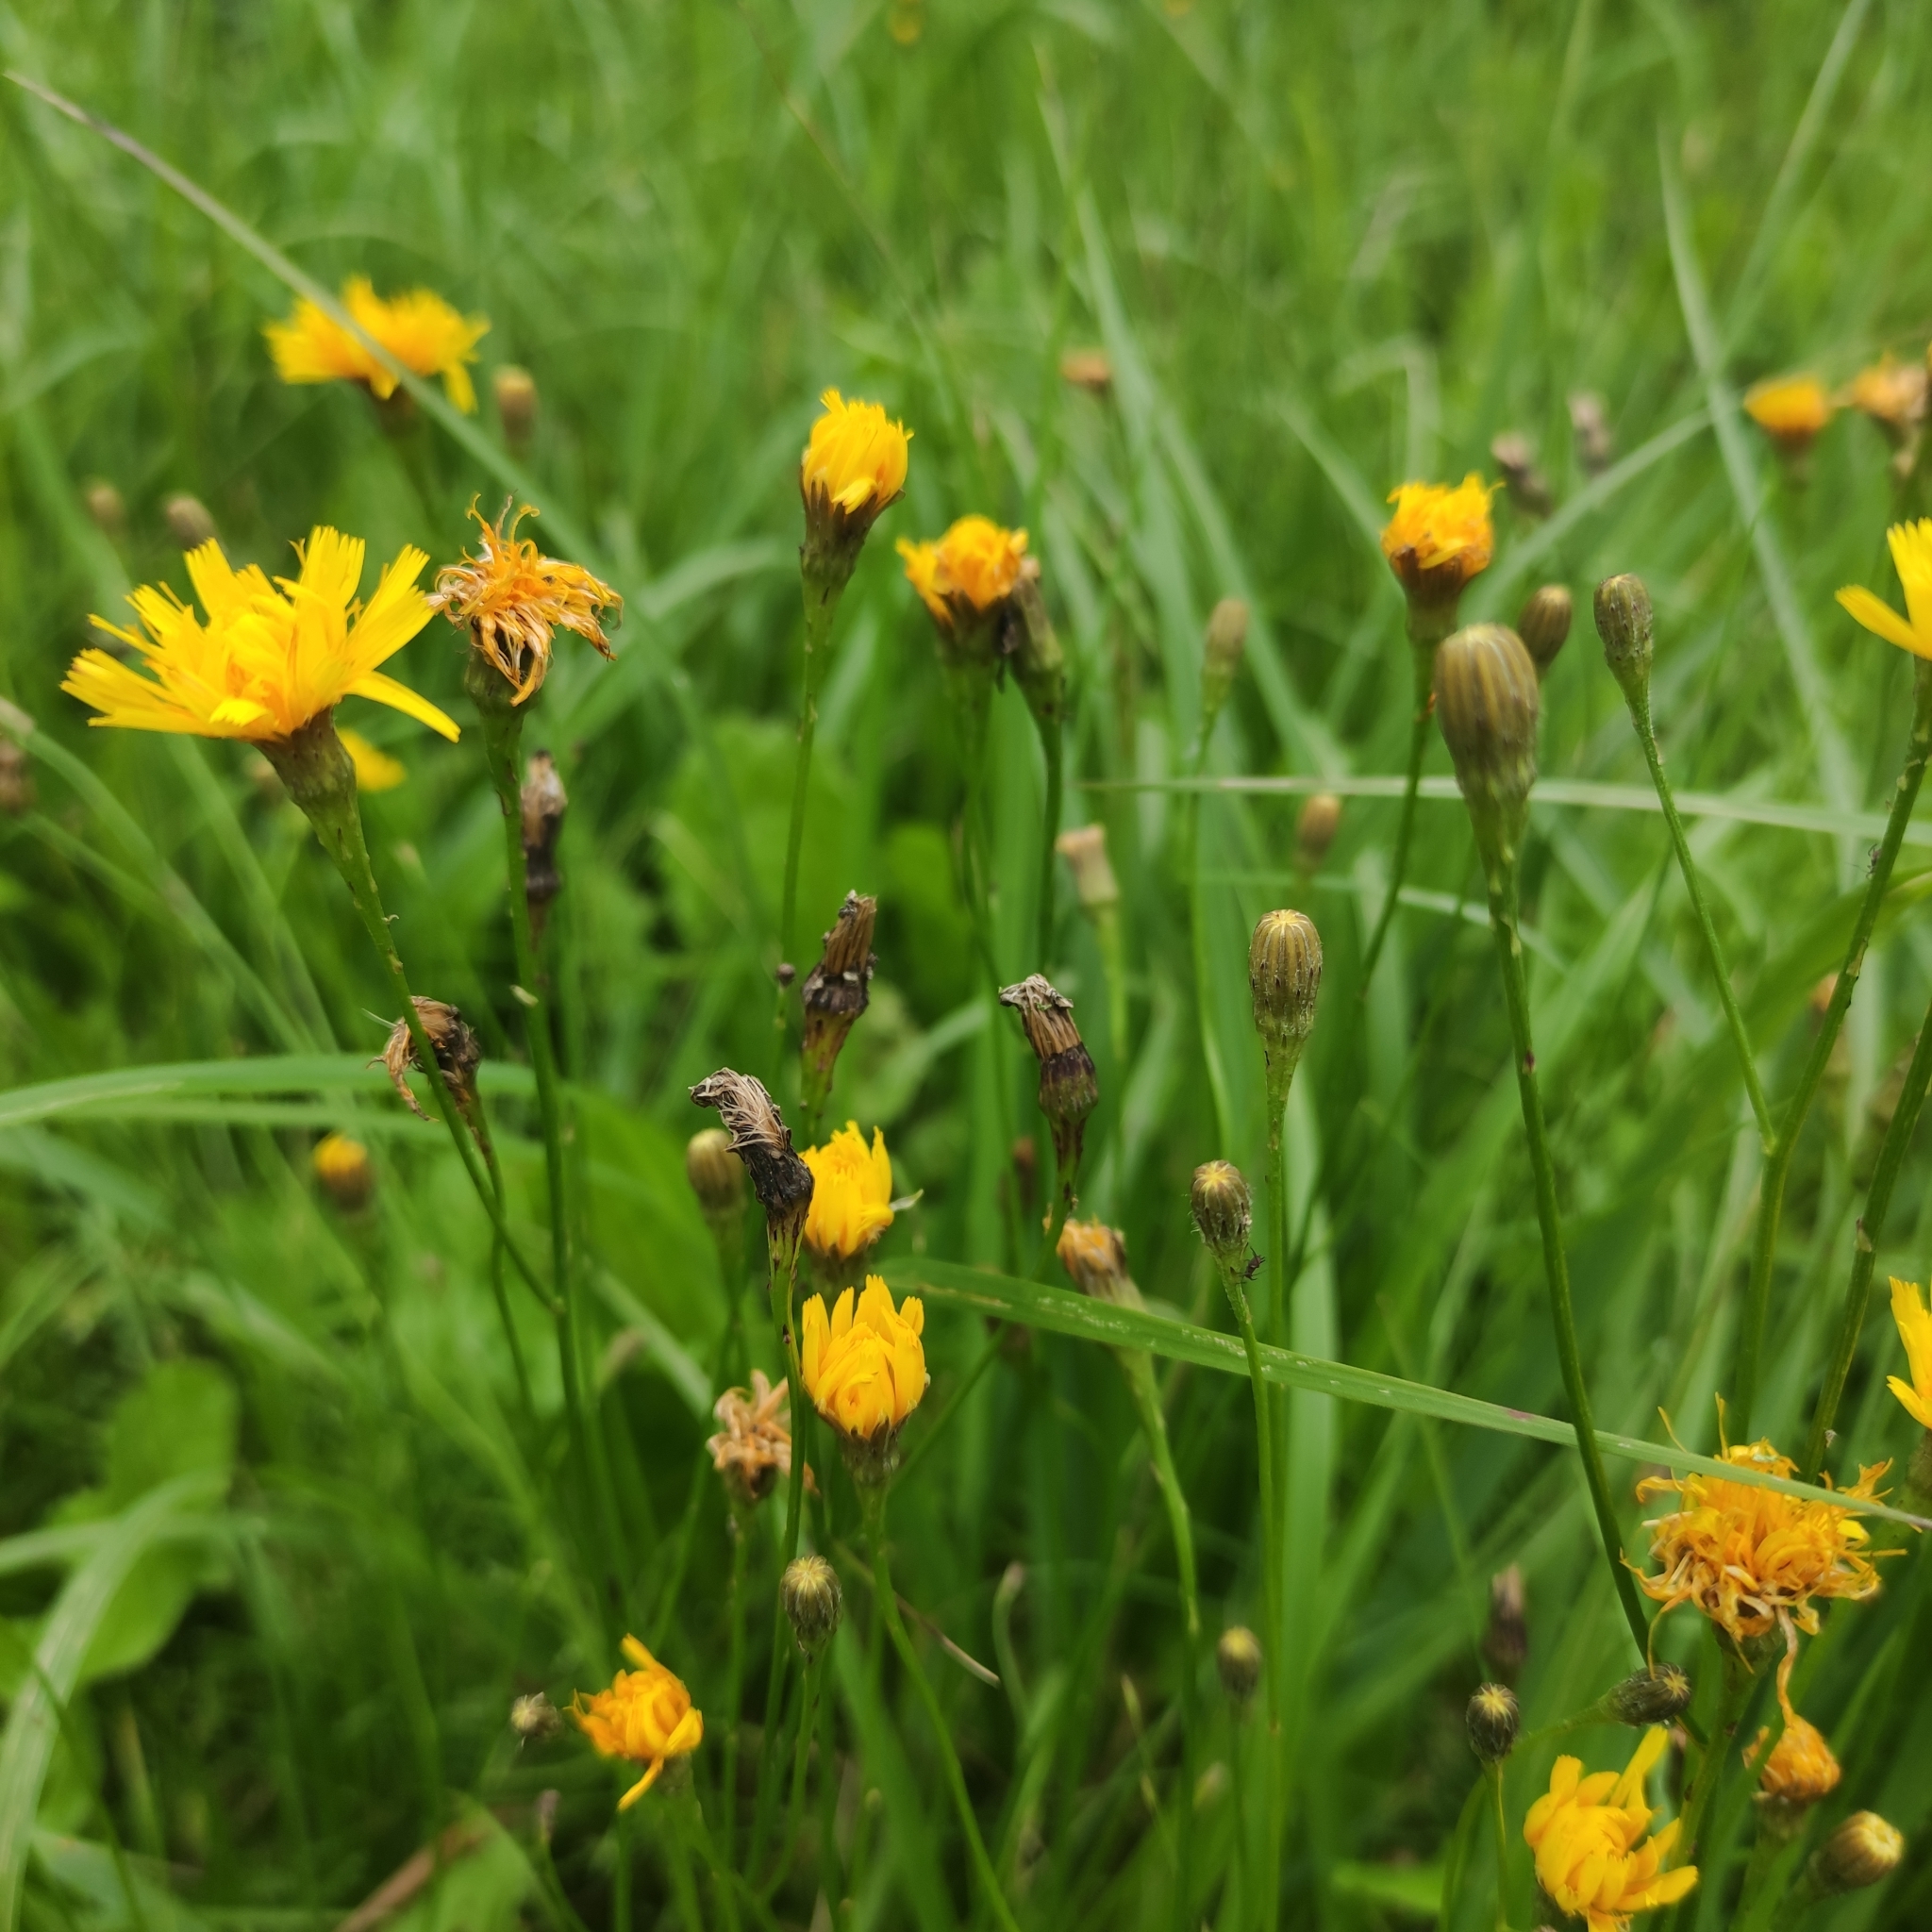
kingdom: Plantae
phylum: Tracheophyta
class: Magnoliopsida
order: Asterales
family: Asteraceae
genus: Scorzoneroides
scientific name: Scorzoneroides autumnalis
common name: Autumn hawkbit
